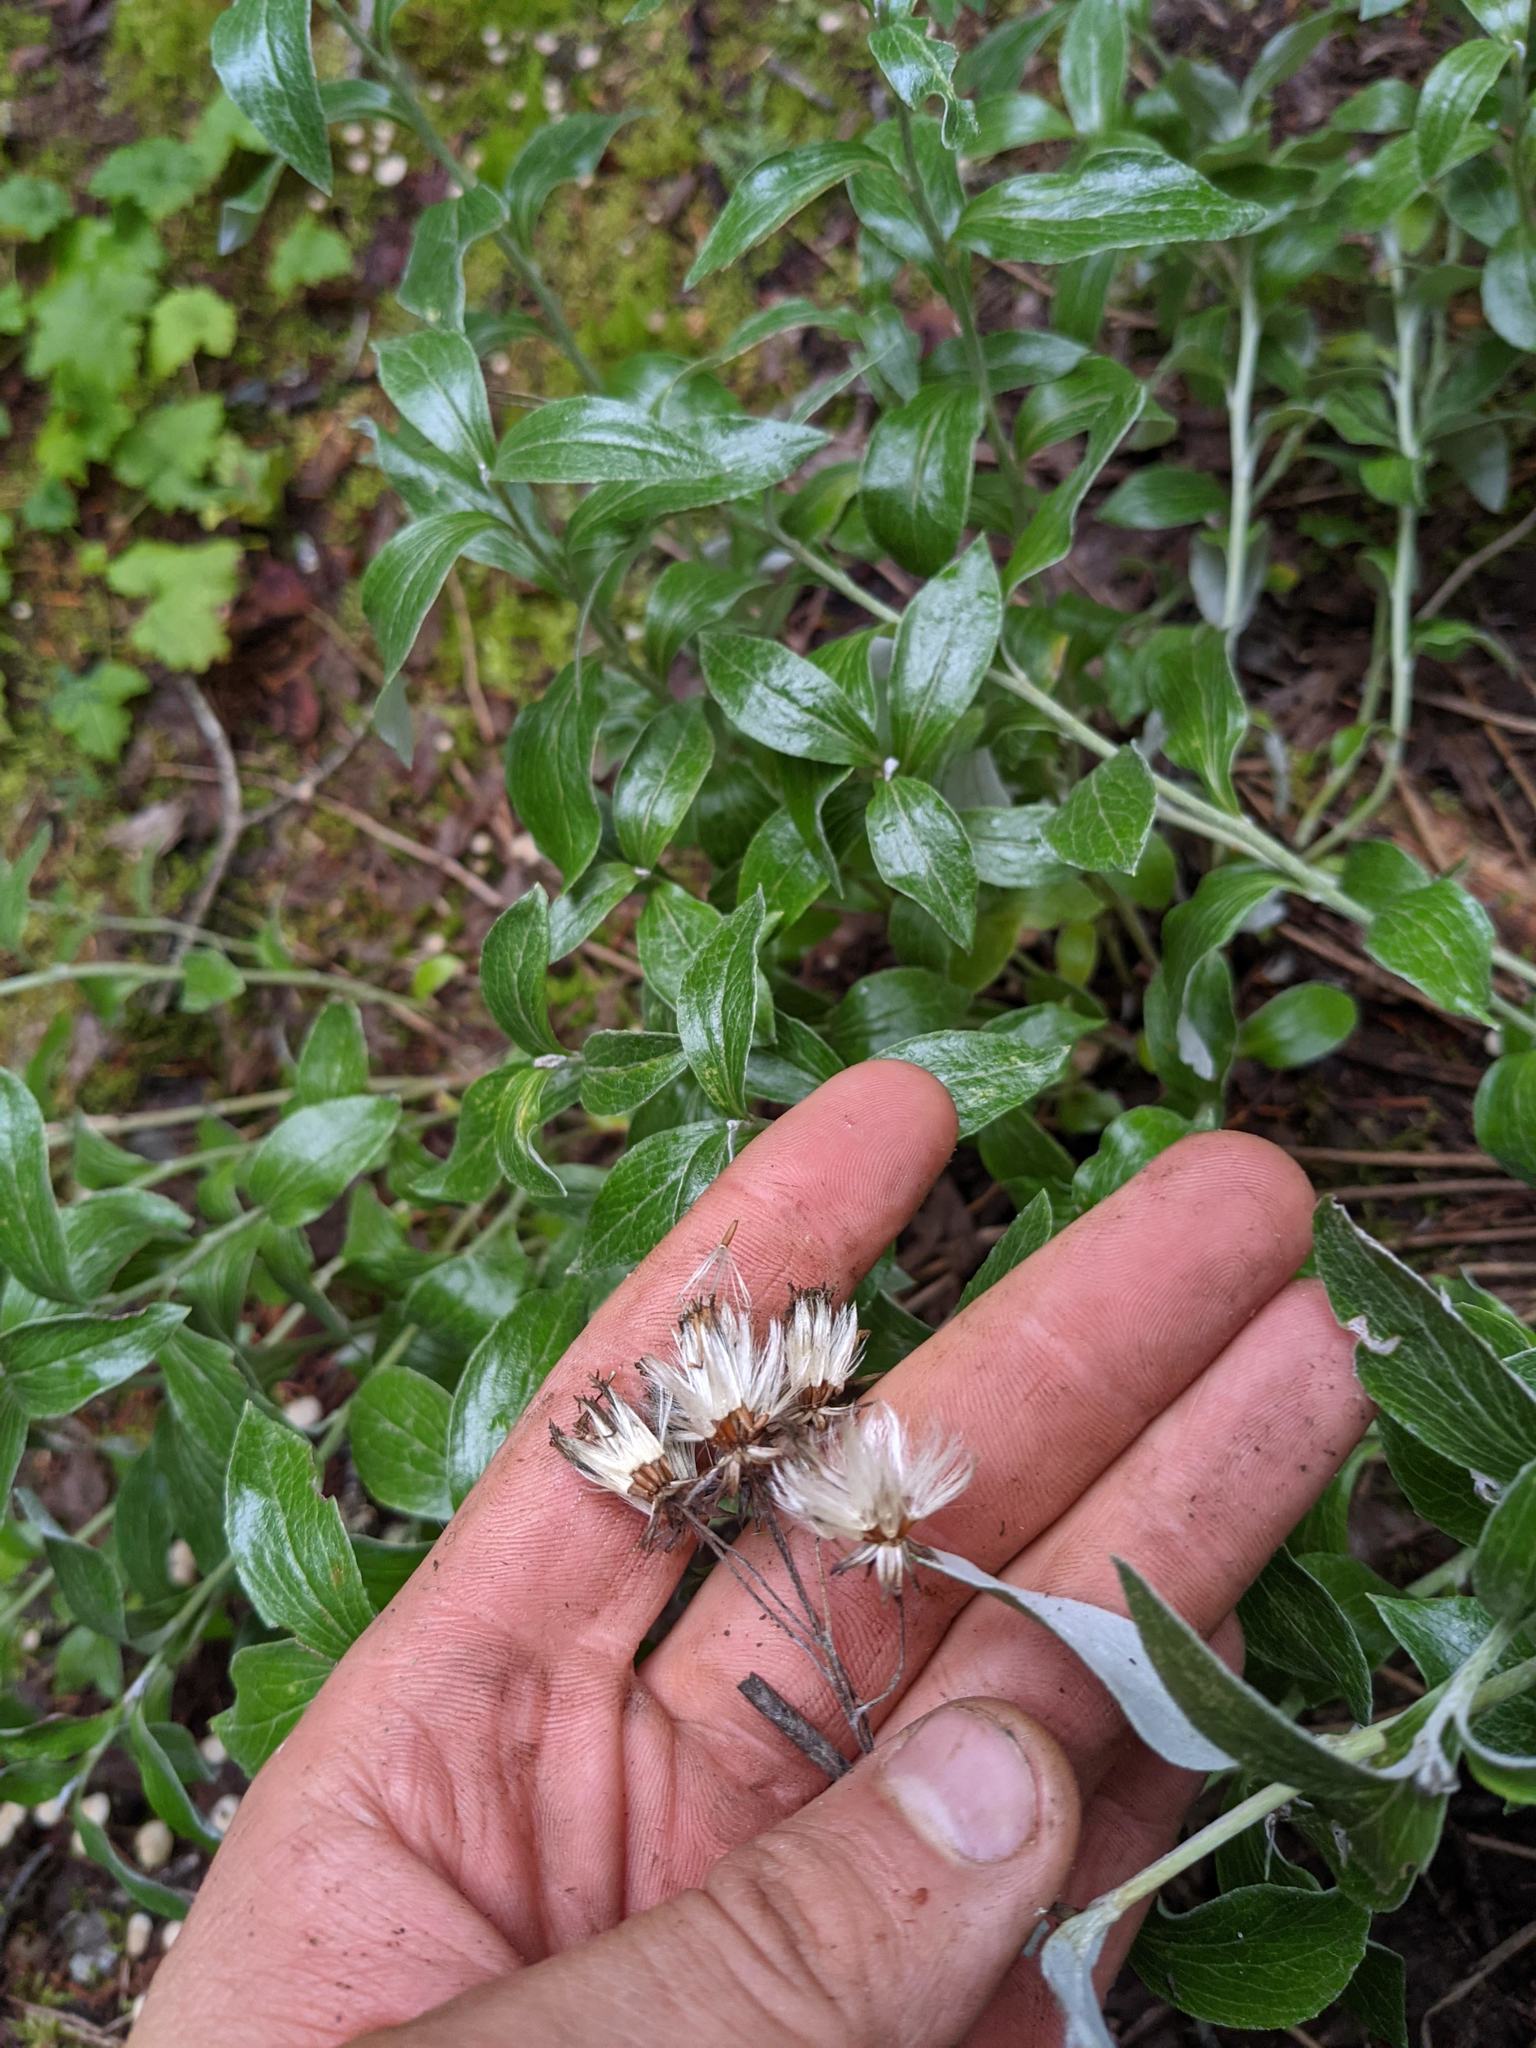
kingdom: Plantae
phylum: Tracheophyta
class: Magnoliopsida
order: Asterales
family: Asteraceae
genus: Luina
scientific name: Luina hypoleuca
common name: Little-leaved luina
